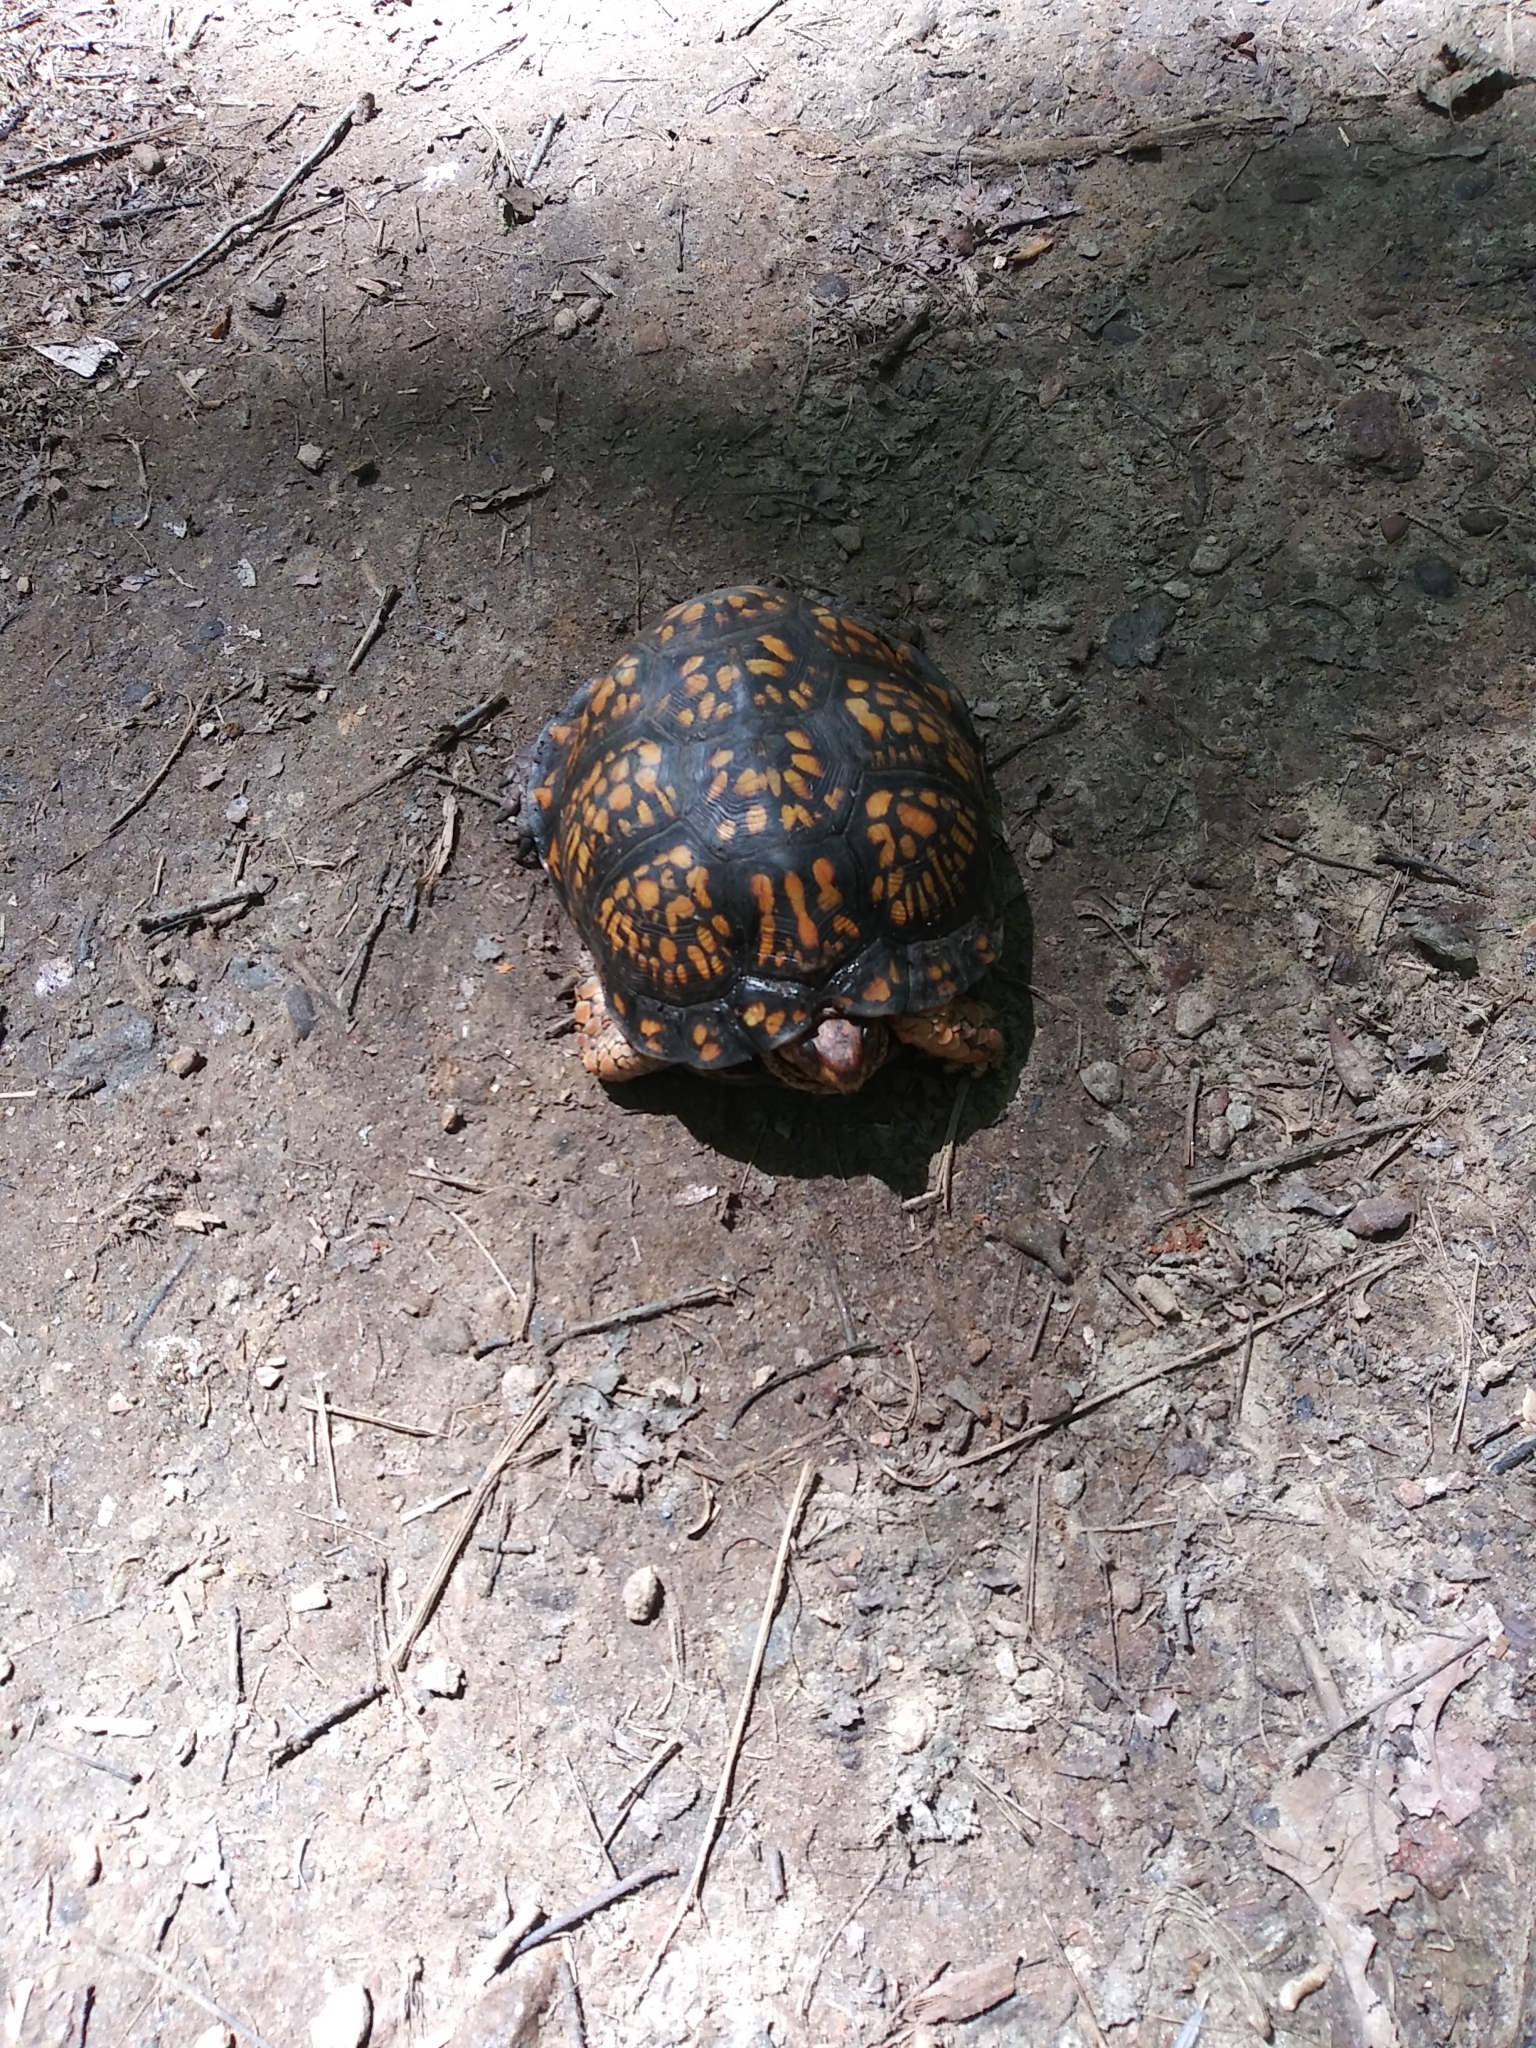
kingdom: Animalia
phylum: Chordata
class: Testudines
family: Emydidae
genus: Terrapene
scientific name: Terrapene carolina
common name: Common box turtle
